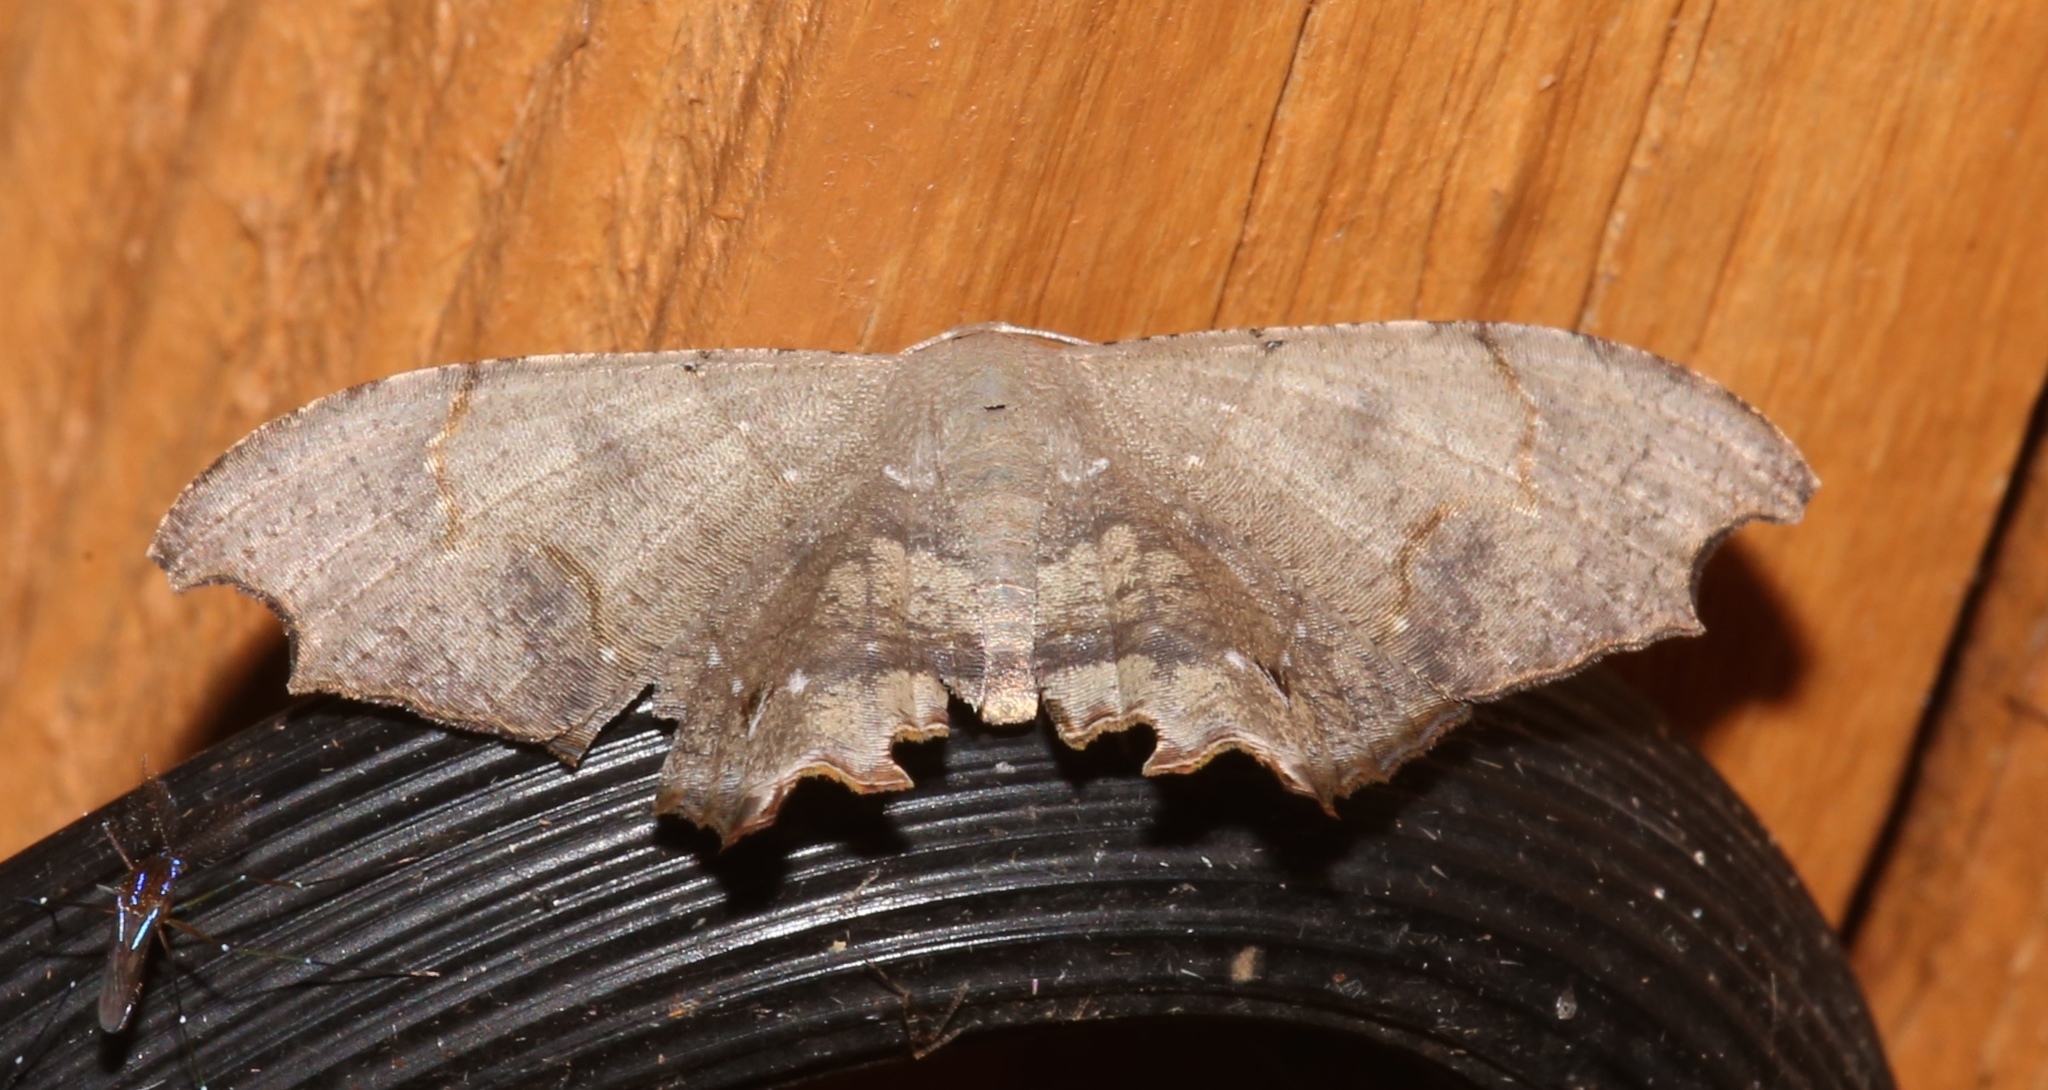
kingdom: Animalia
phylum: Arthropoda
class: Insecta
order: Lepidoptera
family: Uraniidae
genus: Trotorhombia
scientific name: Trotorhombia metachromata
